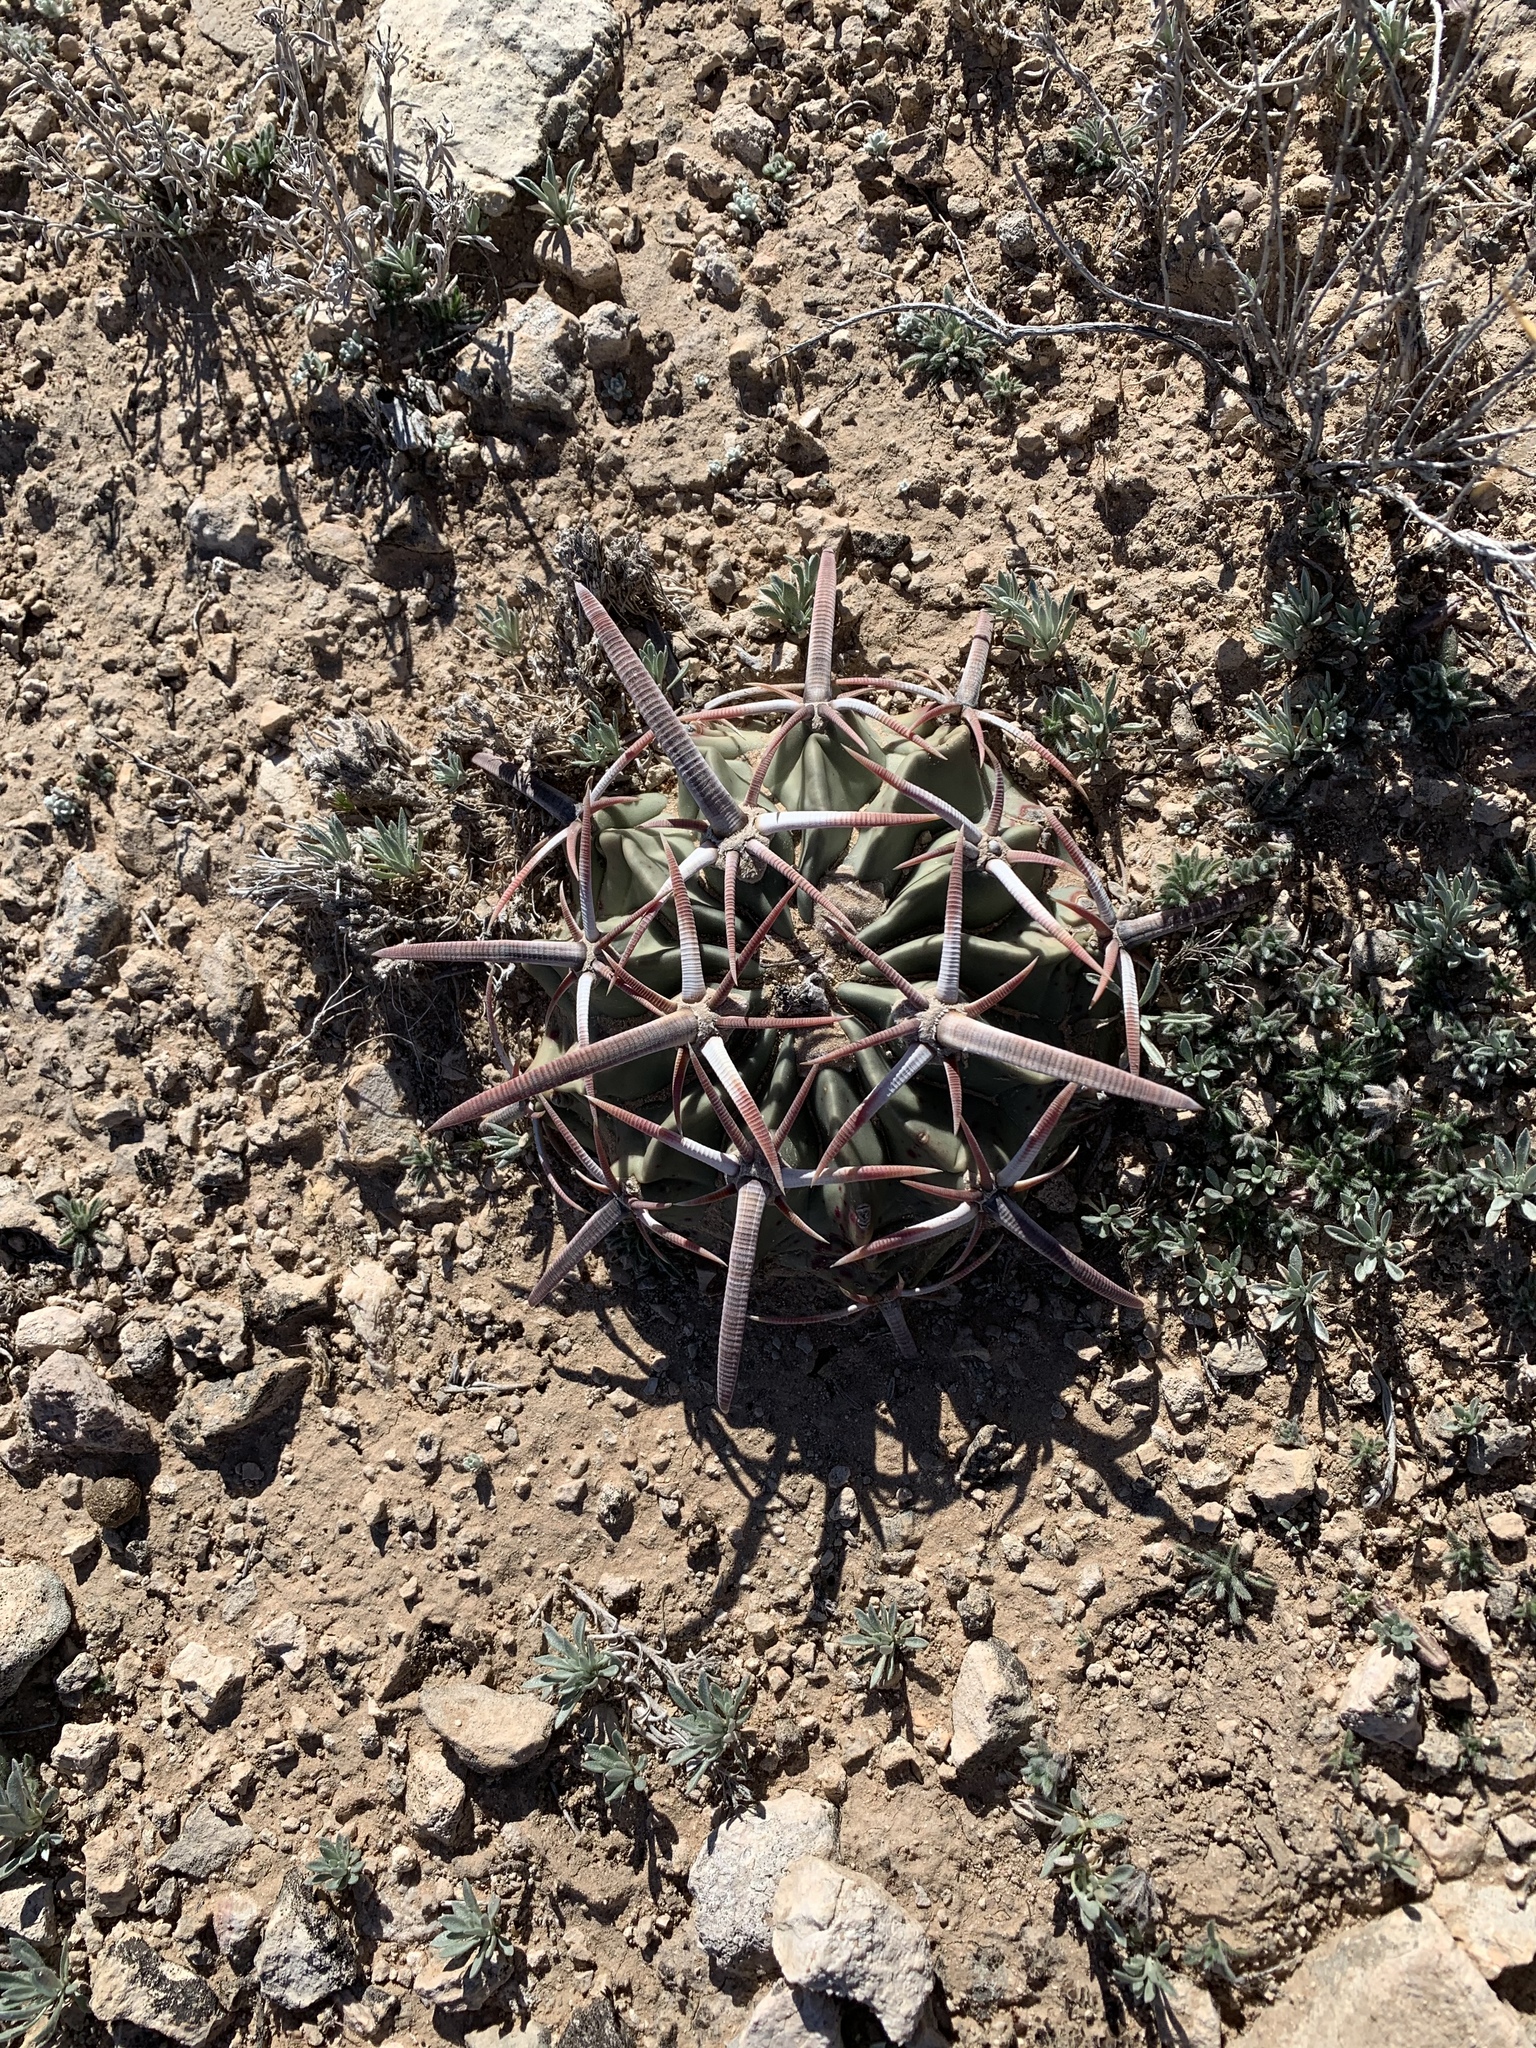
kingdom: Plantae
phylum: Tracheophyta
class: Magnoliopsida
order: Caryophyllales
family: Cactaceae
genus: Echinocactus
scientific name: Echinocactus texensis
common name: Devil's pincushion
